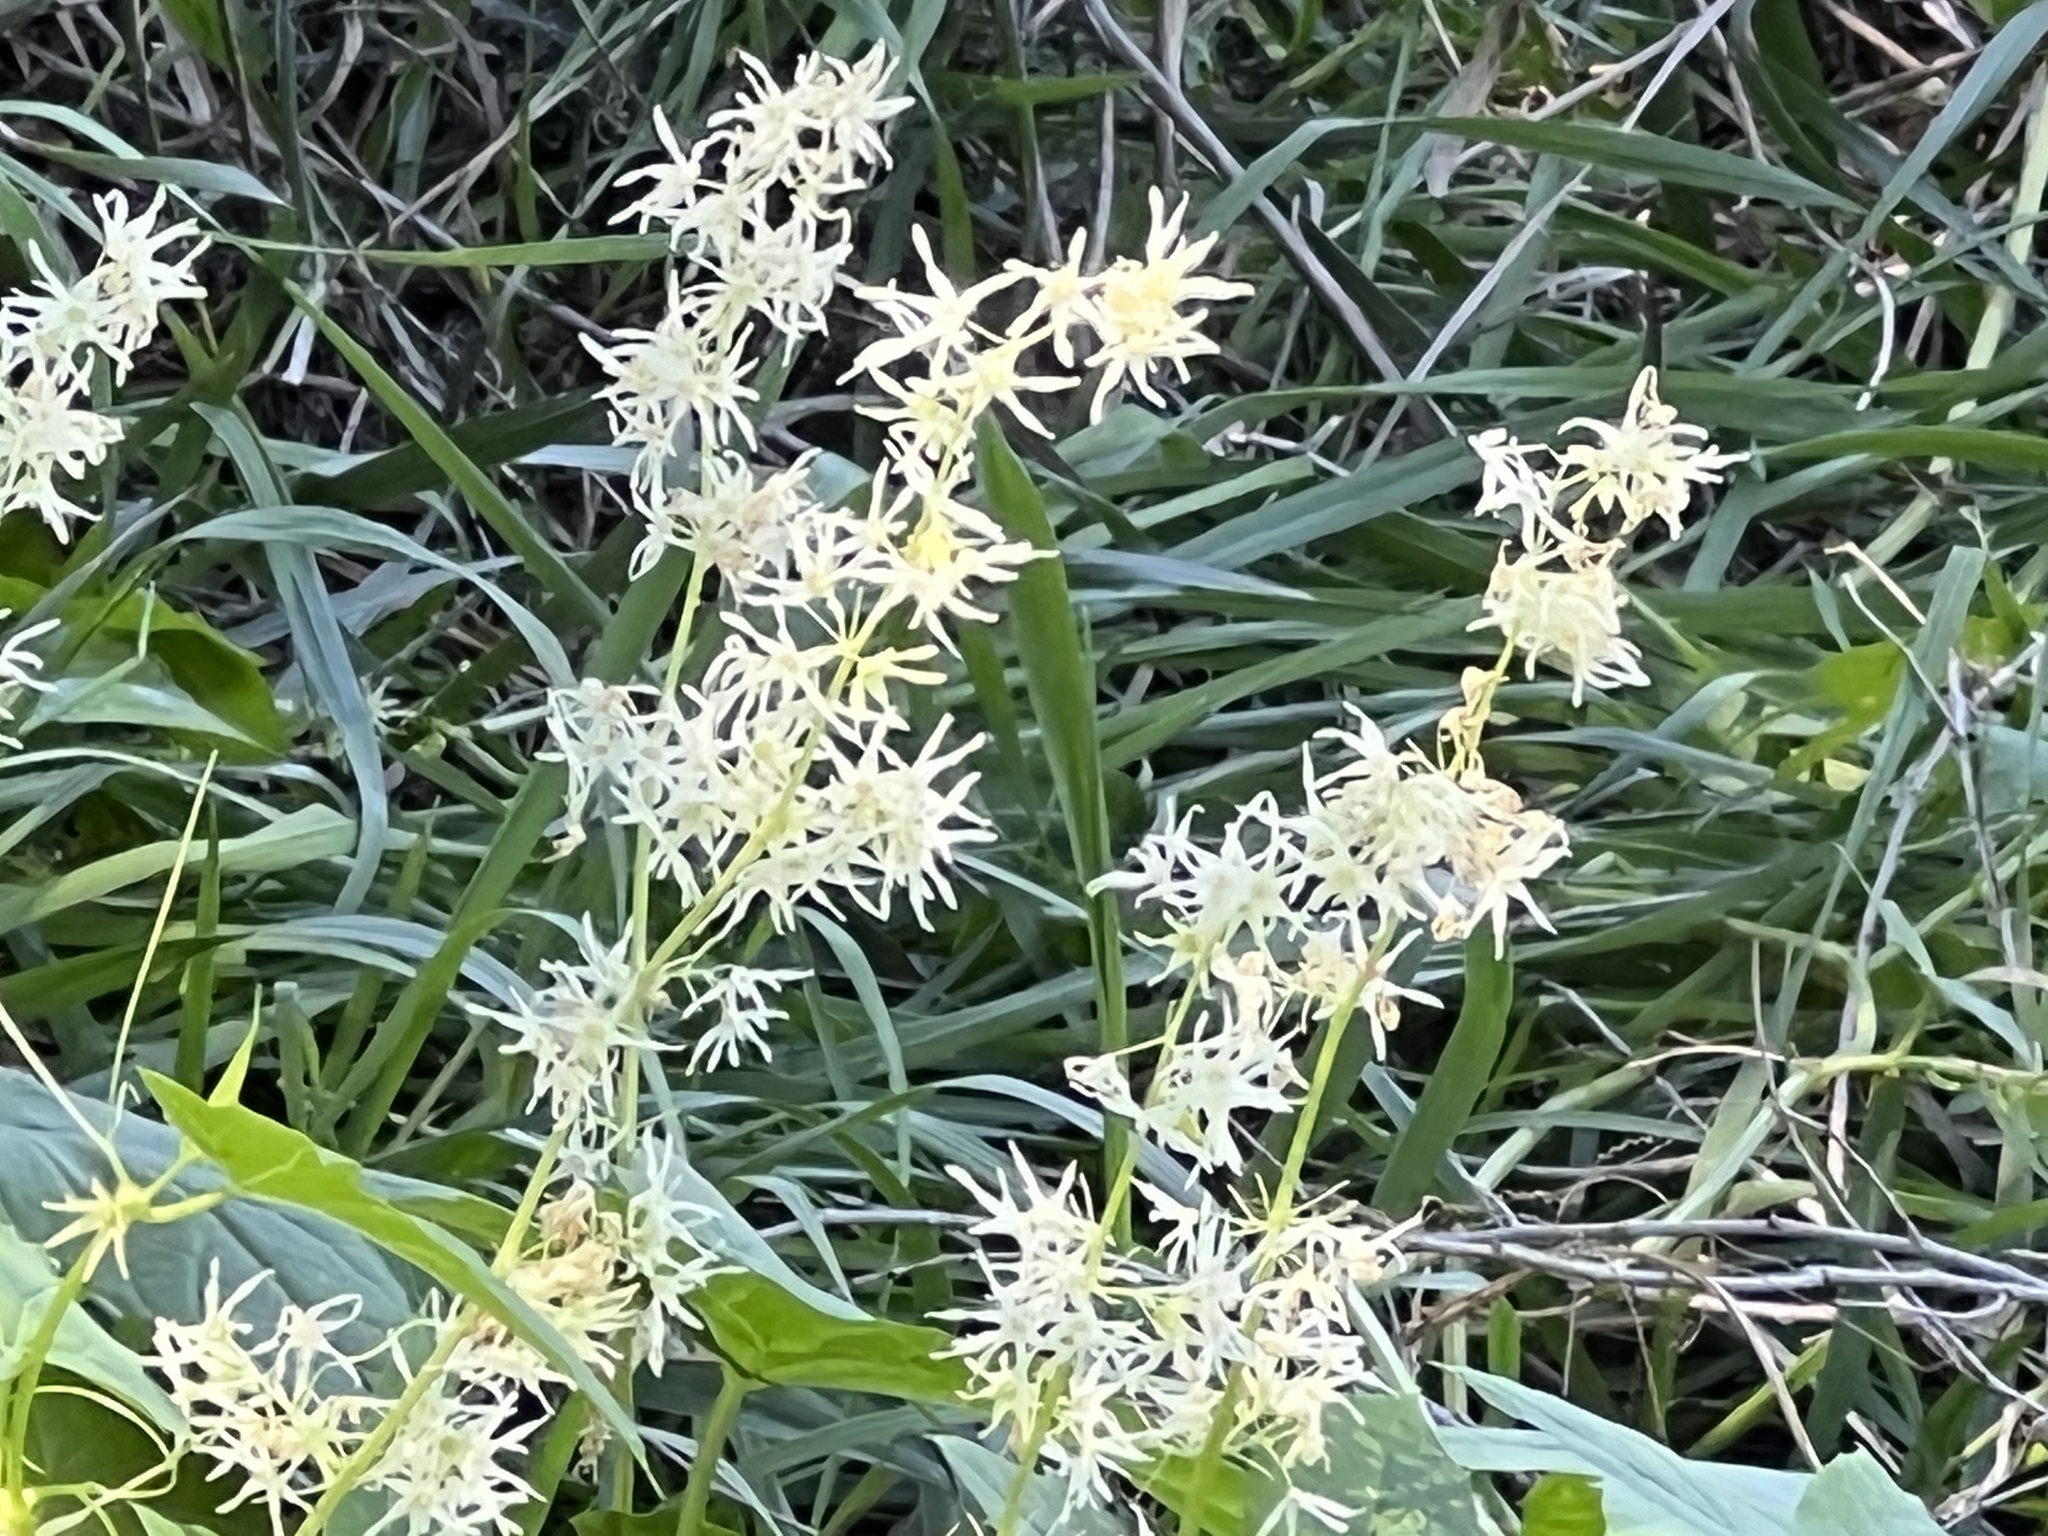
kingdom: Plantae
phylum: Tracheophyta
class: Magnoliopsida
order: Cucurbitales
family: Cucurbitaceae
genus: Echinocystis
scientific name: Echinocystis lobata
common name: Wild cucumber
